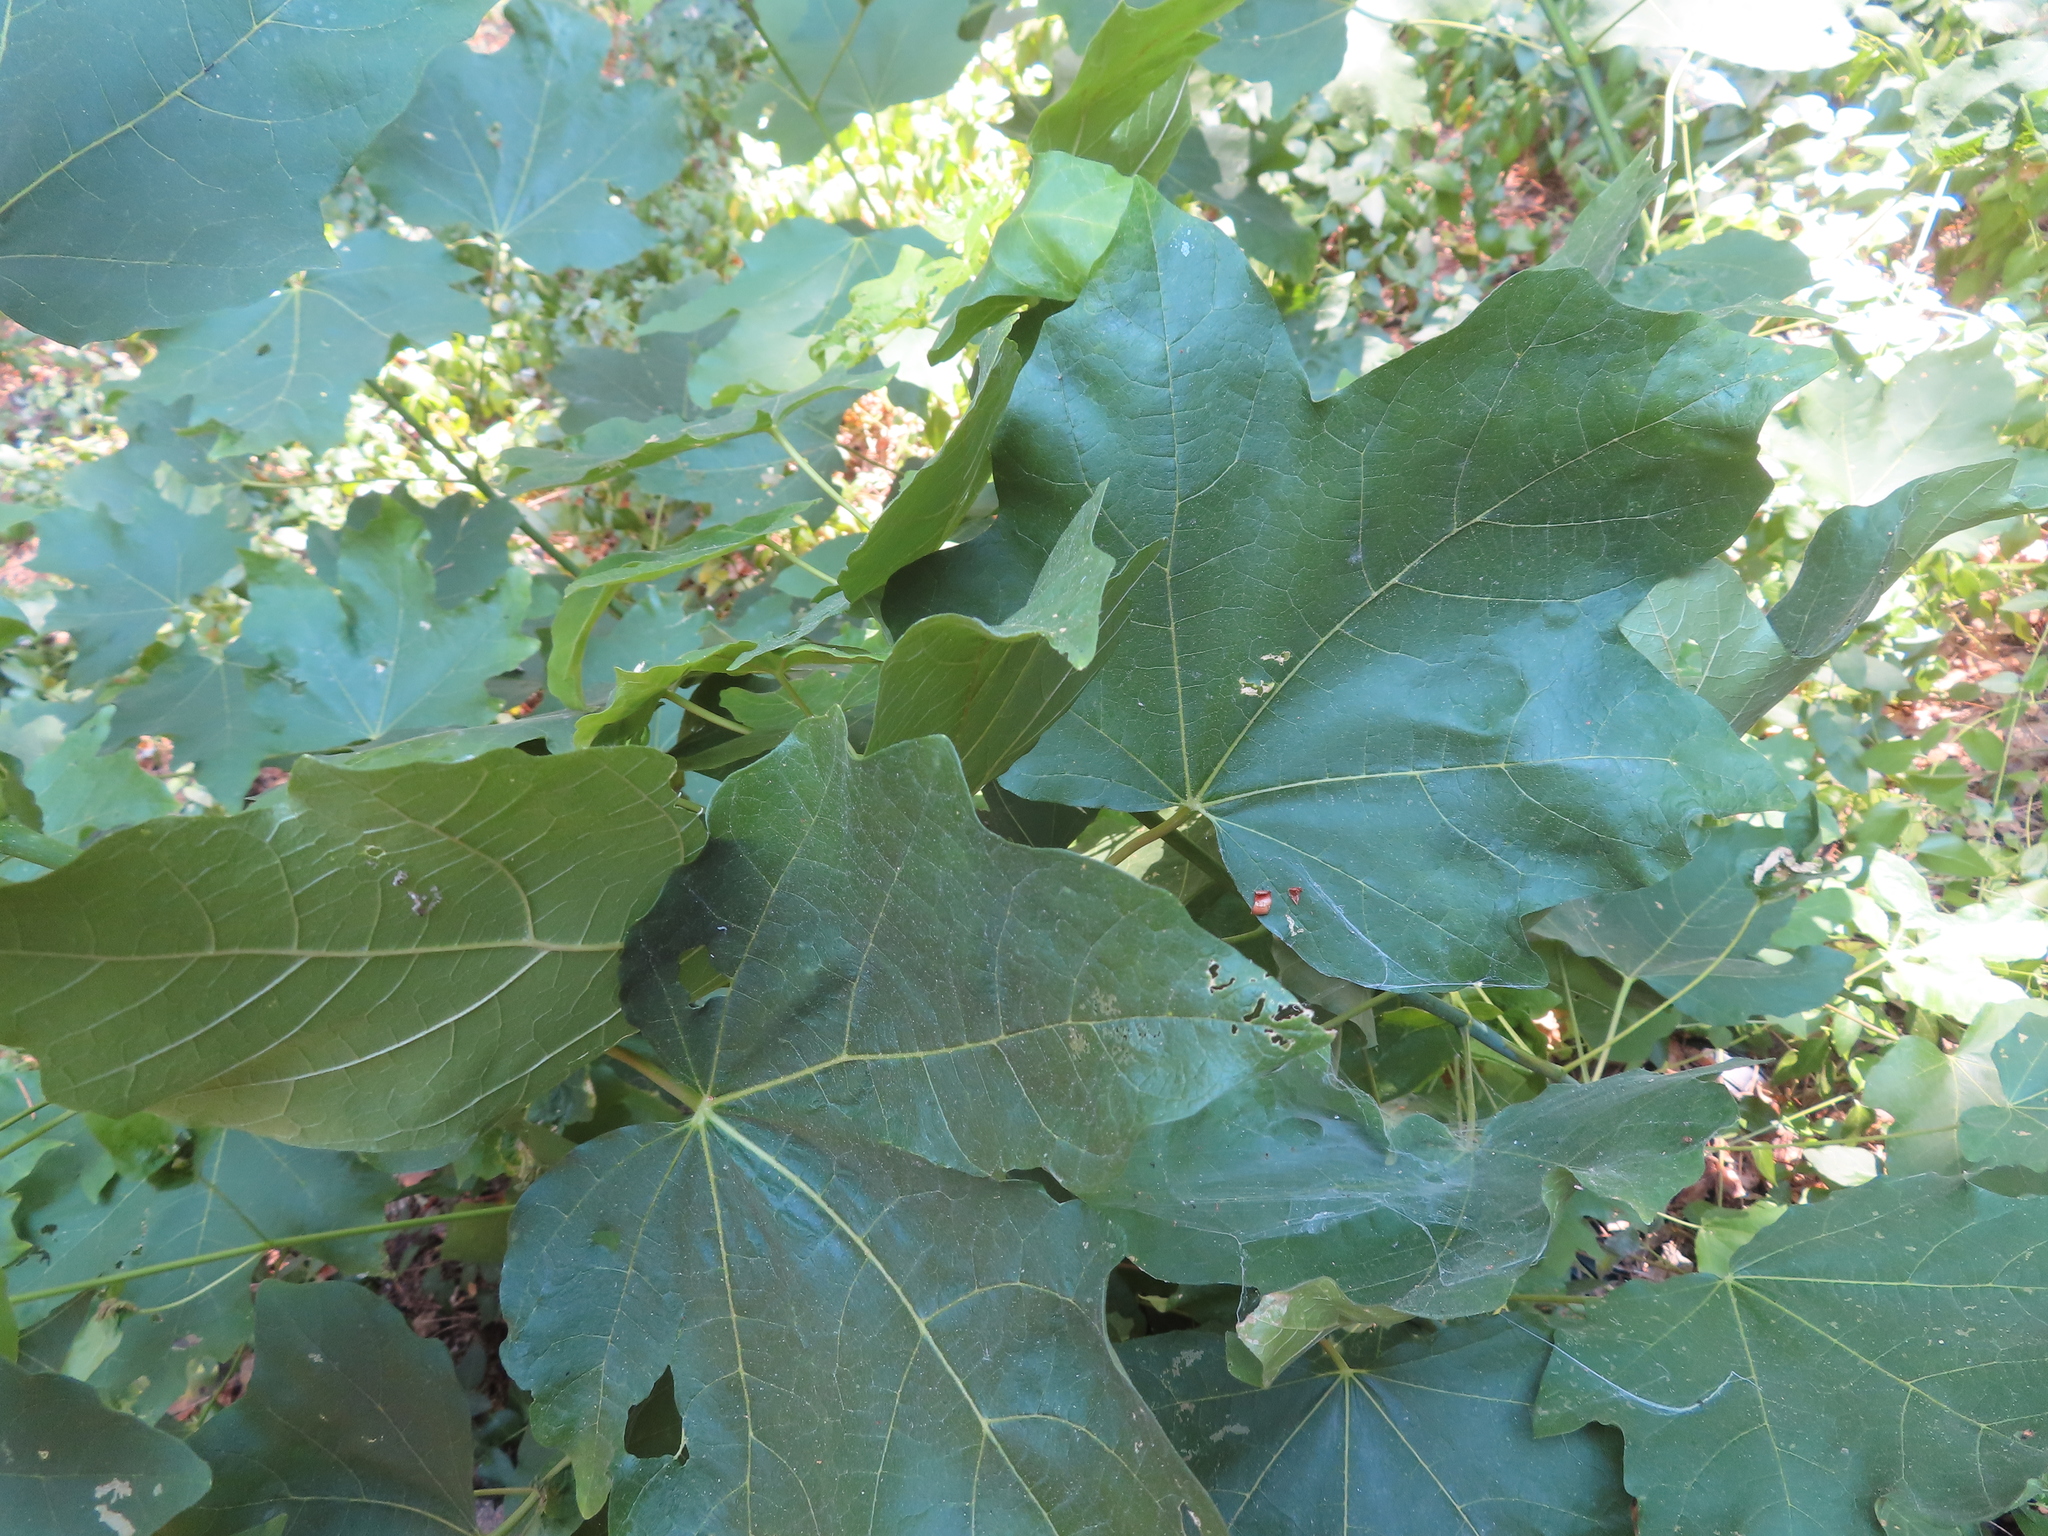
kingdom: Plantae
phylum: Tracheophyta
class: Magnoliopsida
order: Sapindales
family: Sapindaceae
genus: Acer
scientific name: Acer macrophyllum
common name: Oregon maple
